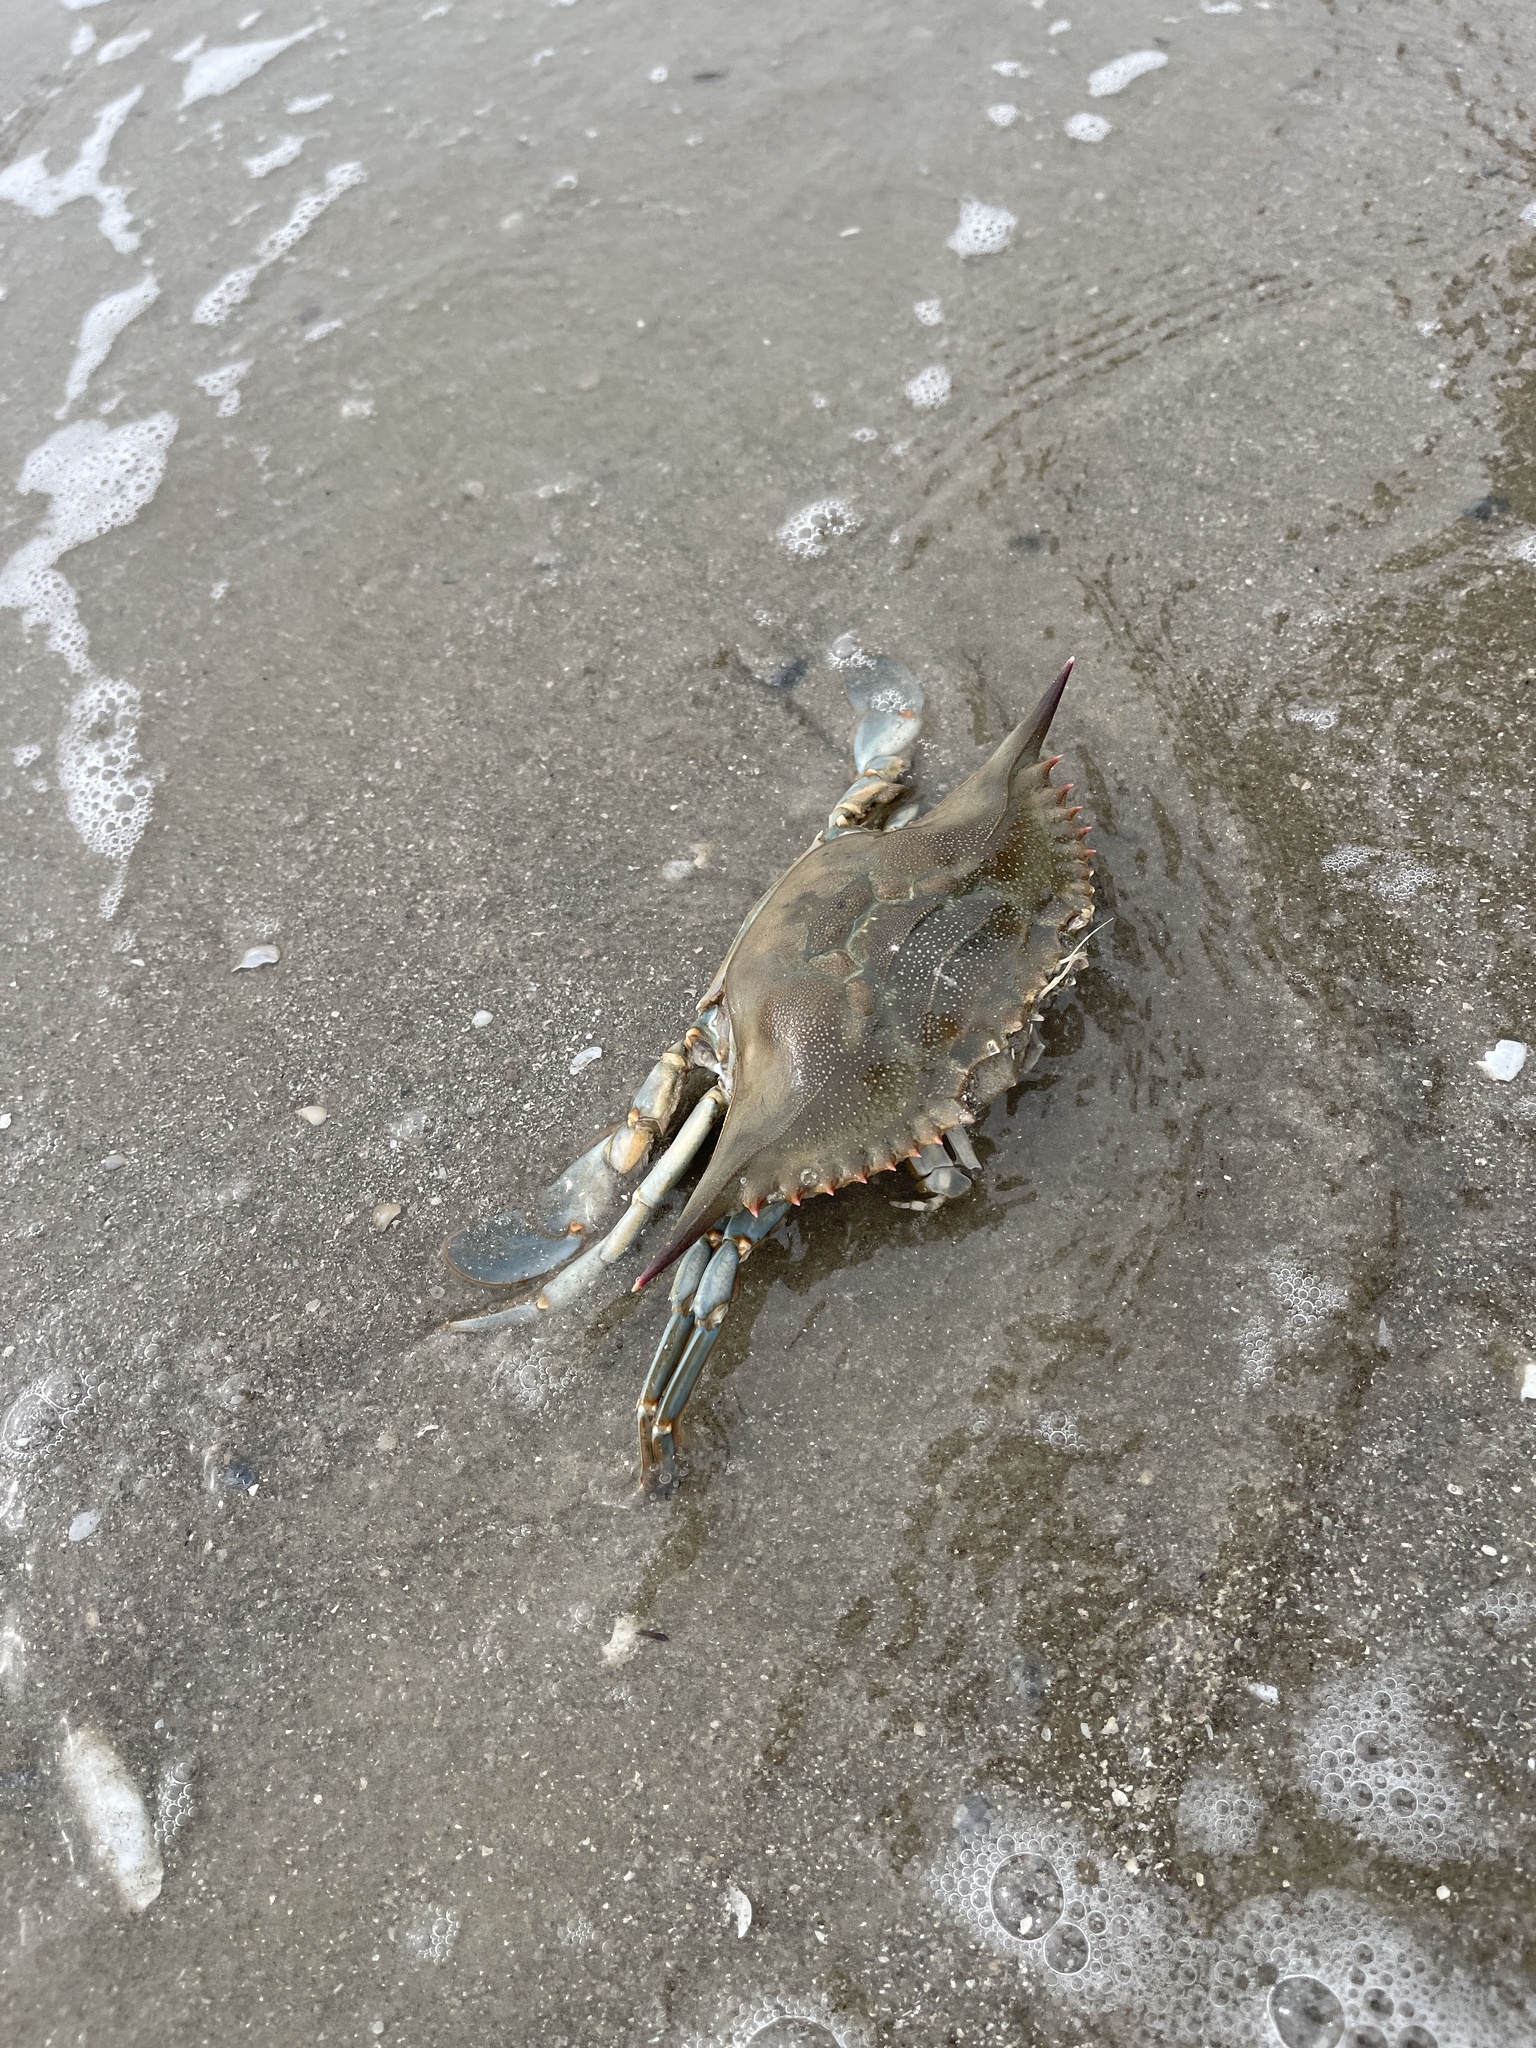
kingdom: Animalia
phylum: Arthropoda
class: Malacostraca
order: Decapoda
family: Portunidae
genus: Callinectes
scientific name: Callinectes sapidus
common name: Blue crab
